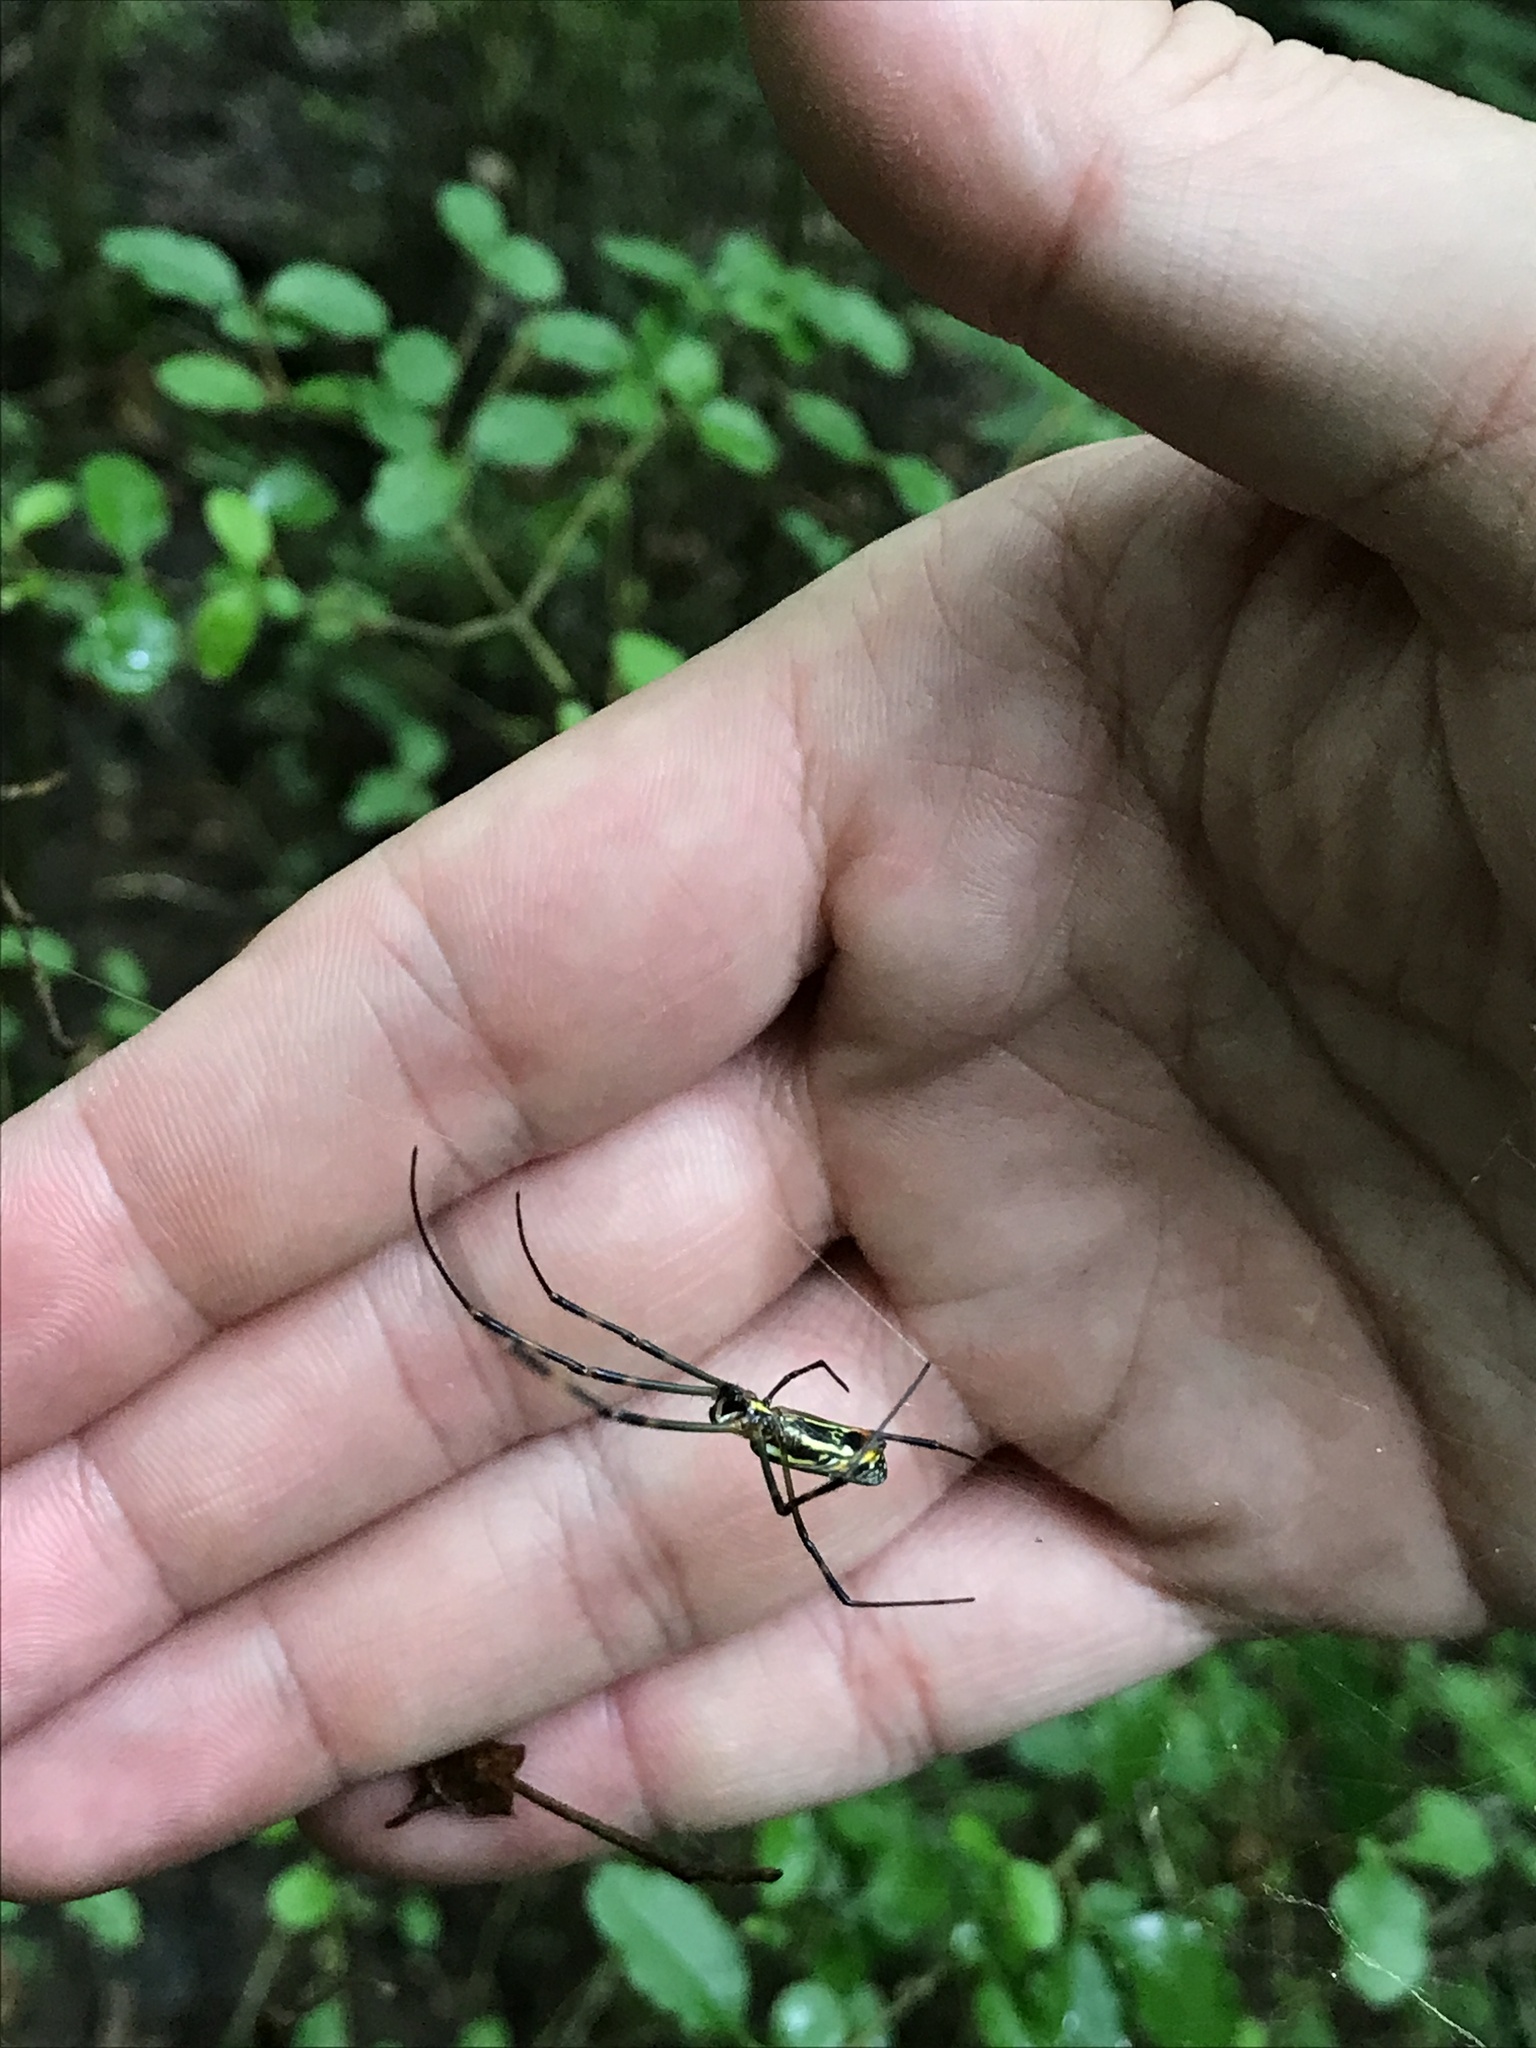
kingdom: Animalia
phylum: Arthropoda
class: Arachnida
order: Araneae
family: Araneidae
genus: Trichonephila
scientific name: Trichonephila clavata
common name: Jorō spider
